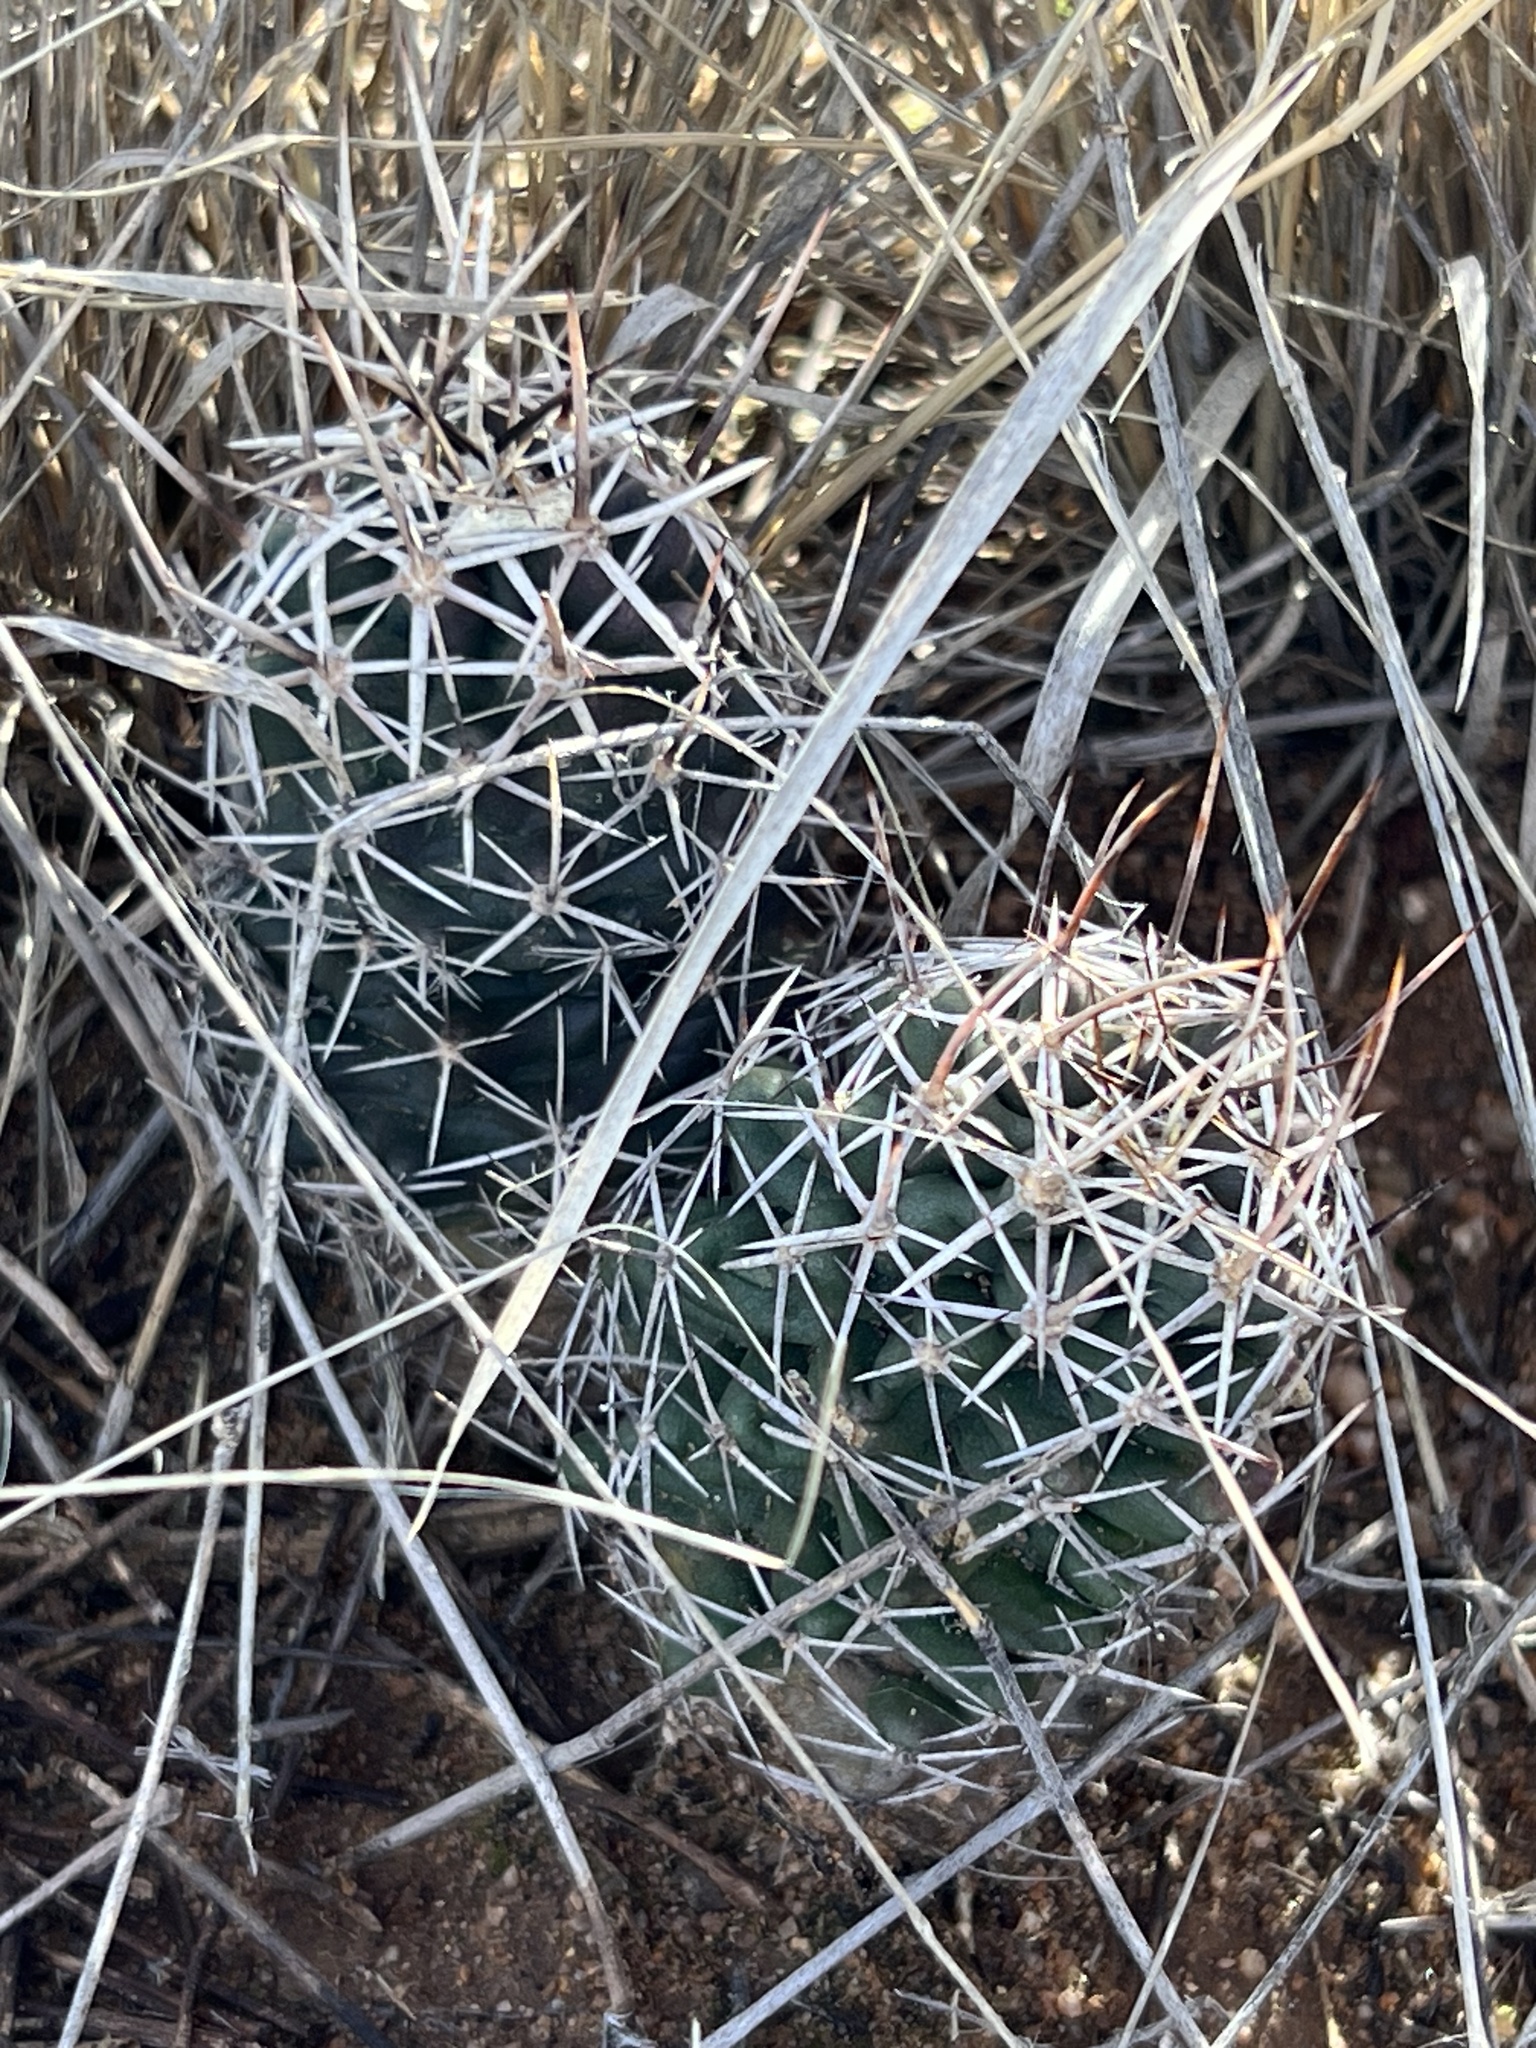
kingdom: Plantae
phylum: Tracheophyta
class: Magnoliopsida
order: Caryophyllales
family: Cactaceae
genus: Echinocereus
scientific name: Echinocereus fendleri
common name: Fendler's hedgehog cactus
